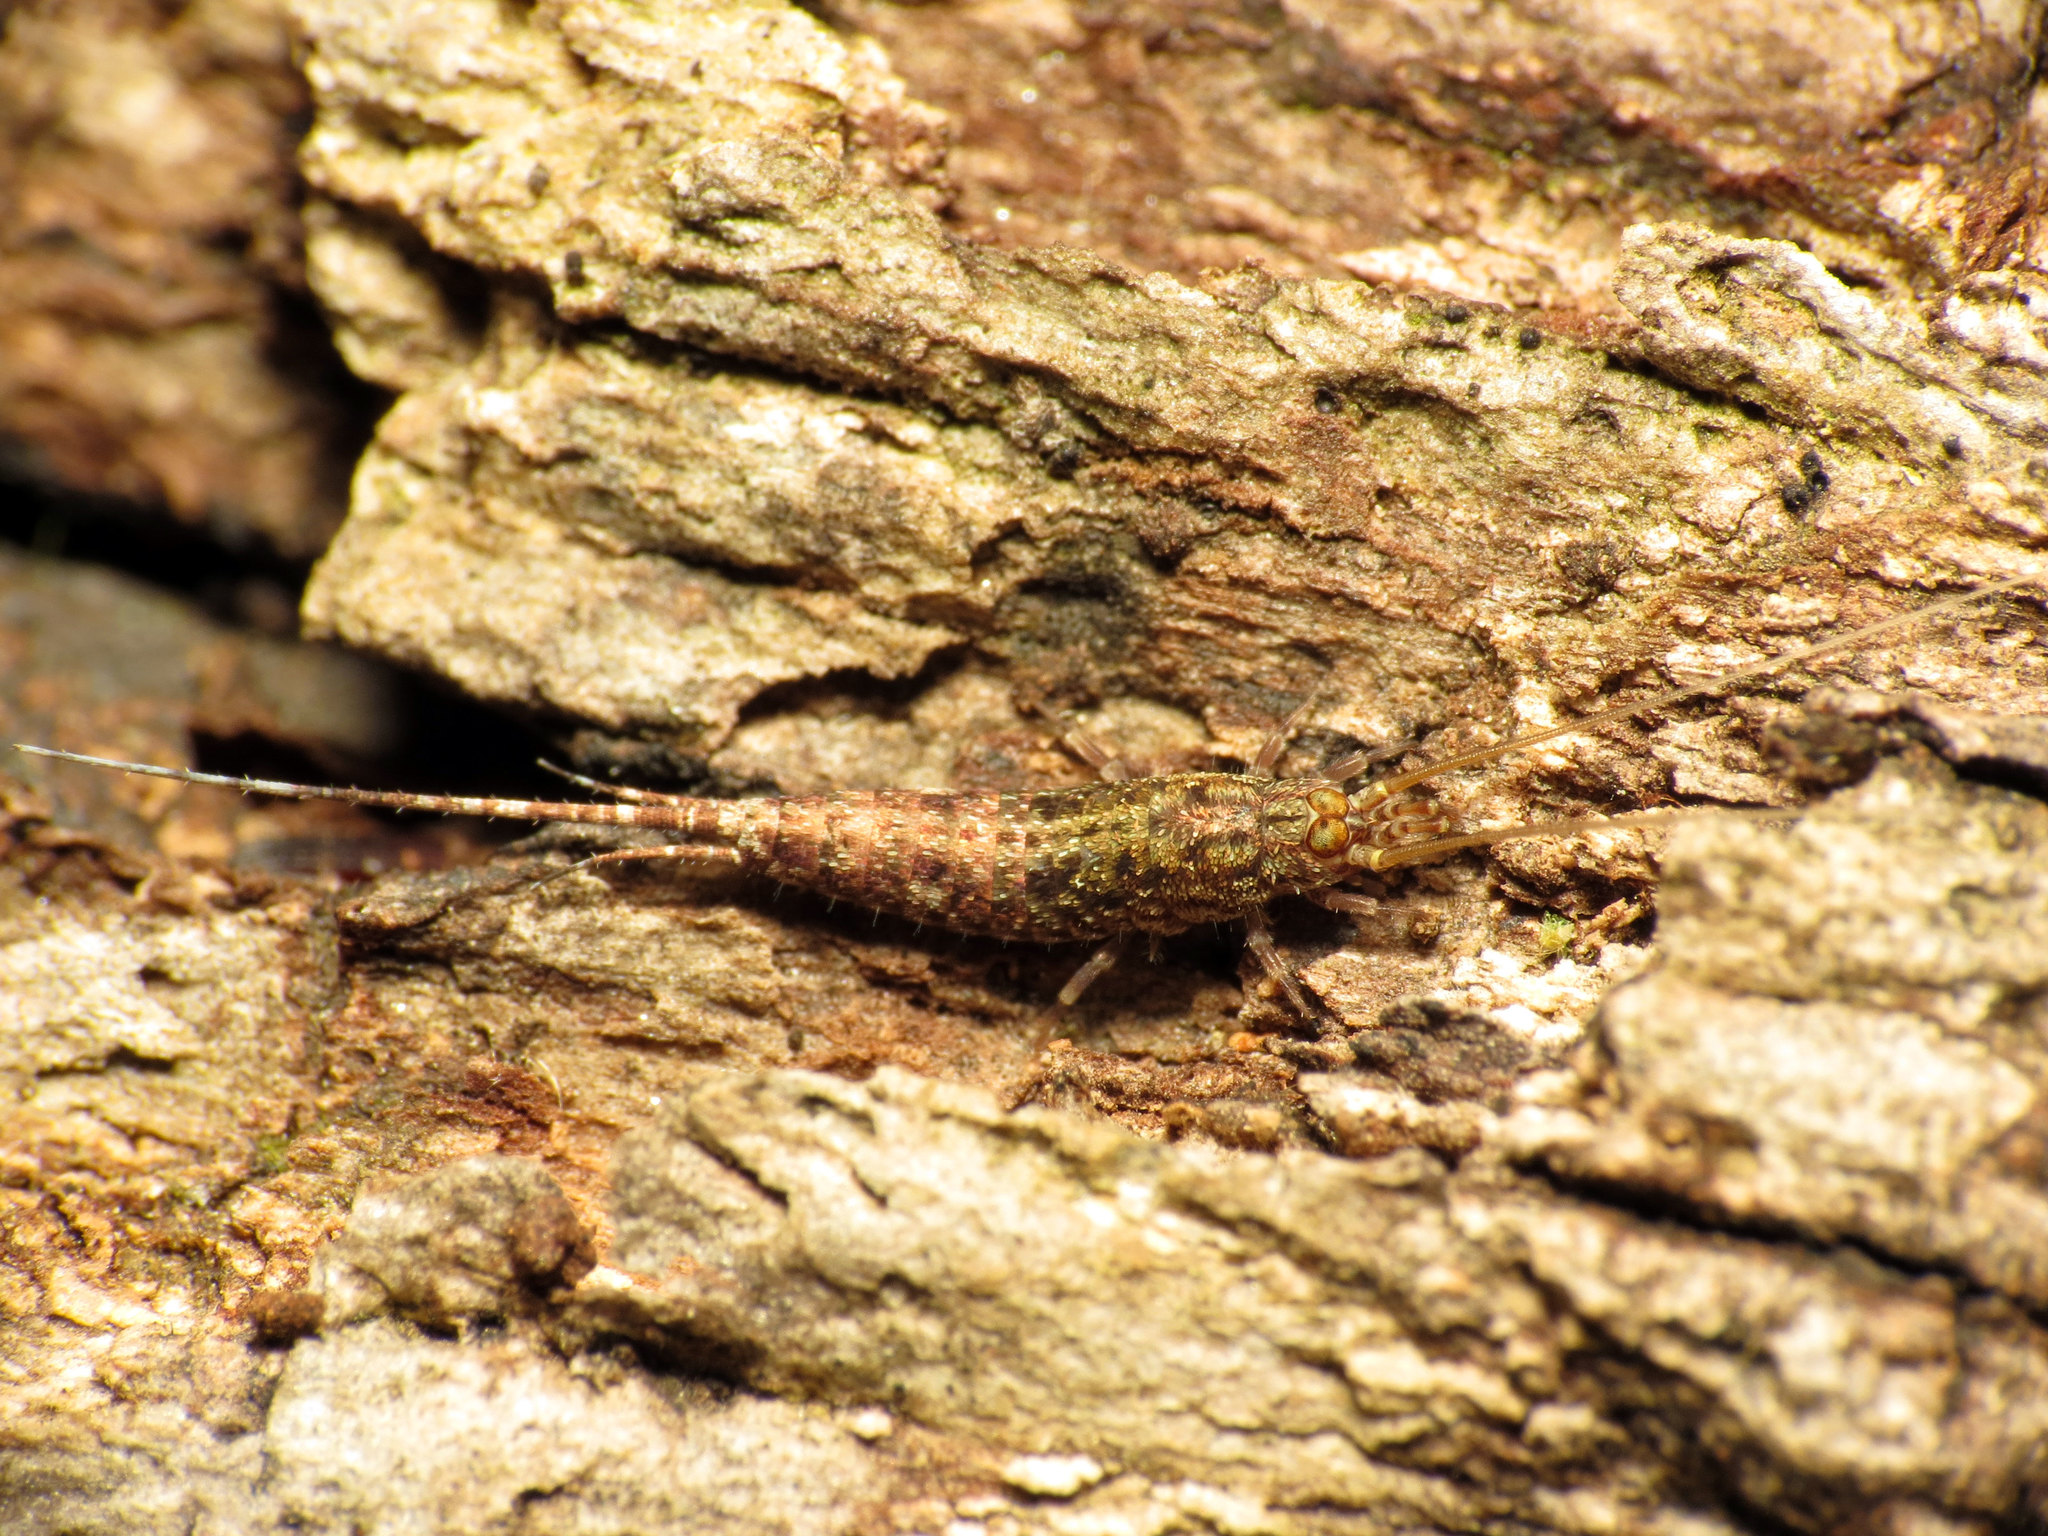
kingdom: Animalia
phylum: Arthropoda
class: Insecta
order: Archaeognatha
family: Meinertellidae
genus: Machiloides
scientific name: Machiloides banksi
